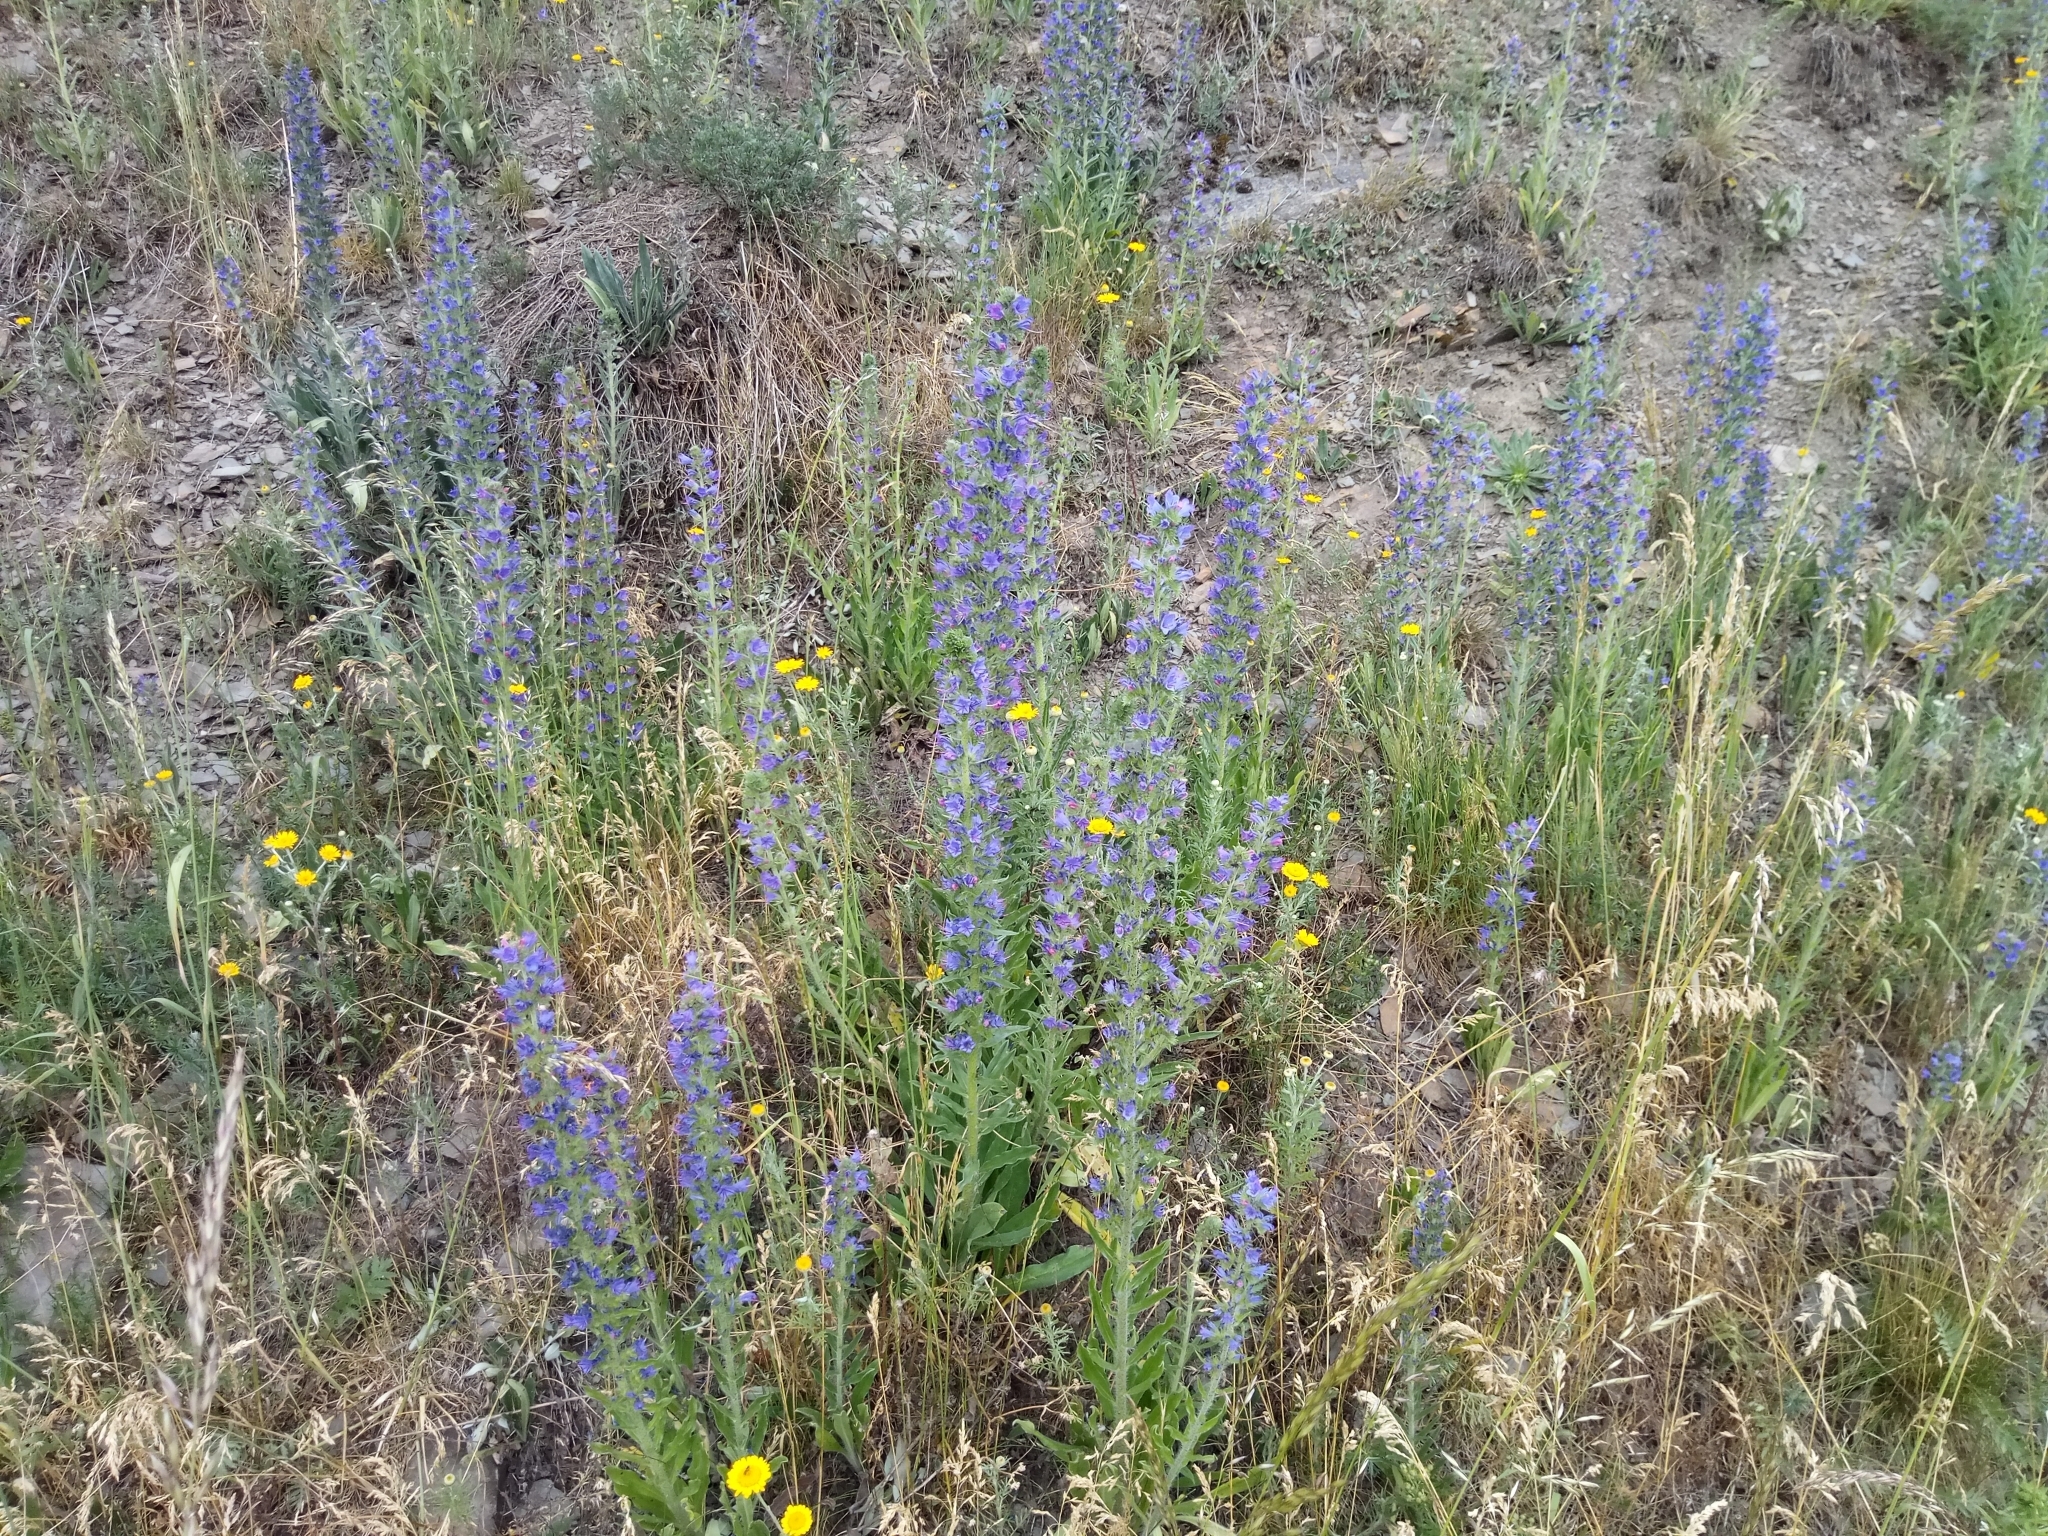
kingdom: Plantae
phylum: Tracheophyta
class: Magnoliopsida
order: Boraginales
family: Boraginaceae
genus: Echium
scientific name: Echium vulgare
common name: Common viper's bugloss
